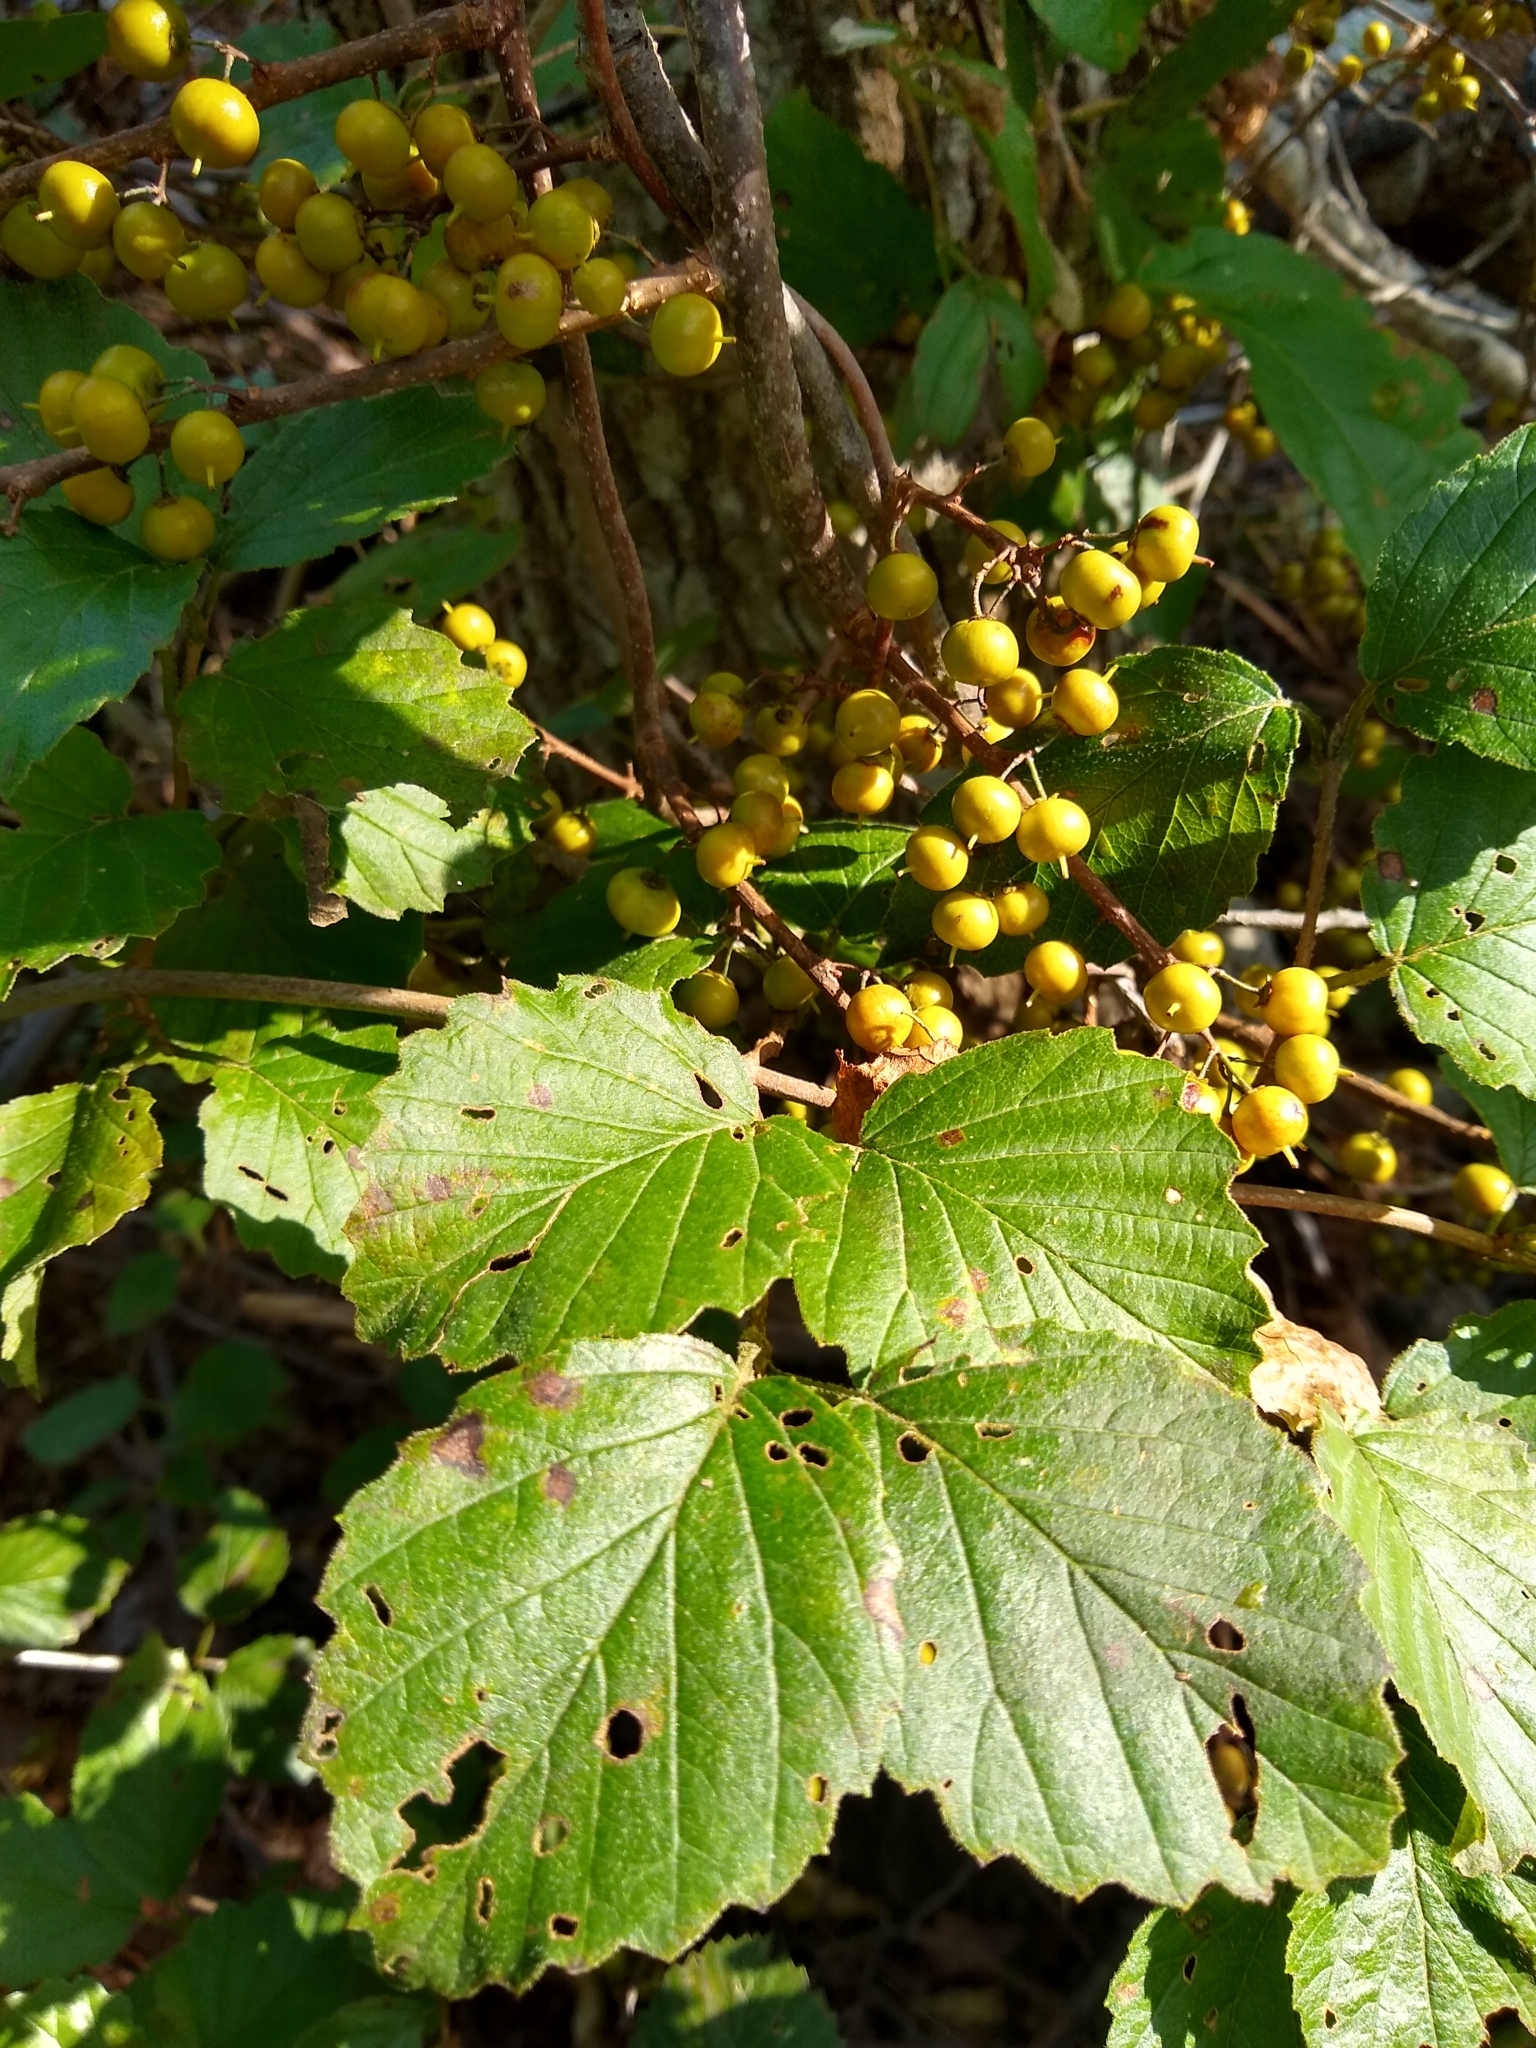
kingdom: Plantae
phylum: Tracheophyta
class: Magnoliopsida
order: Celastrales
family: Celastraceae
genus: Celastrus
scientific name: Celastrus orbiculatus
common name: Oriental bittersweet
